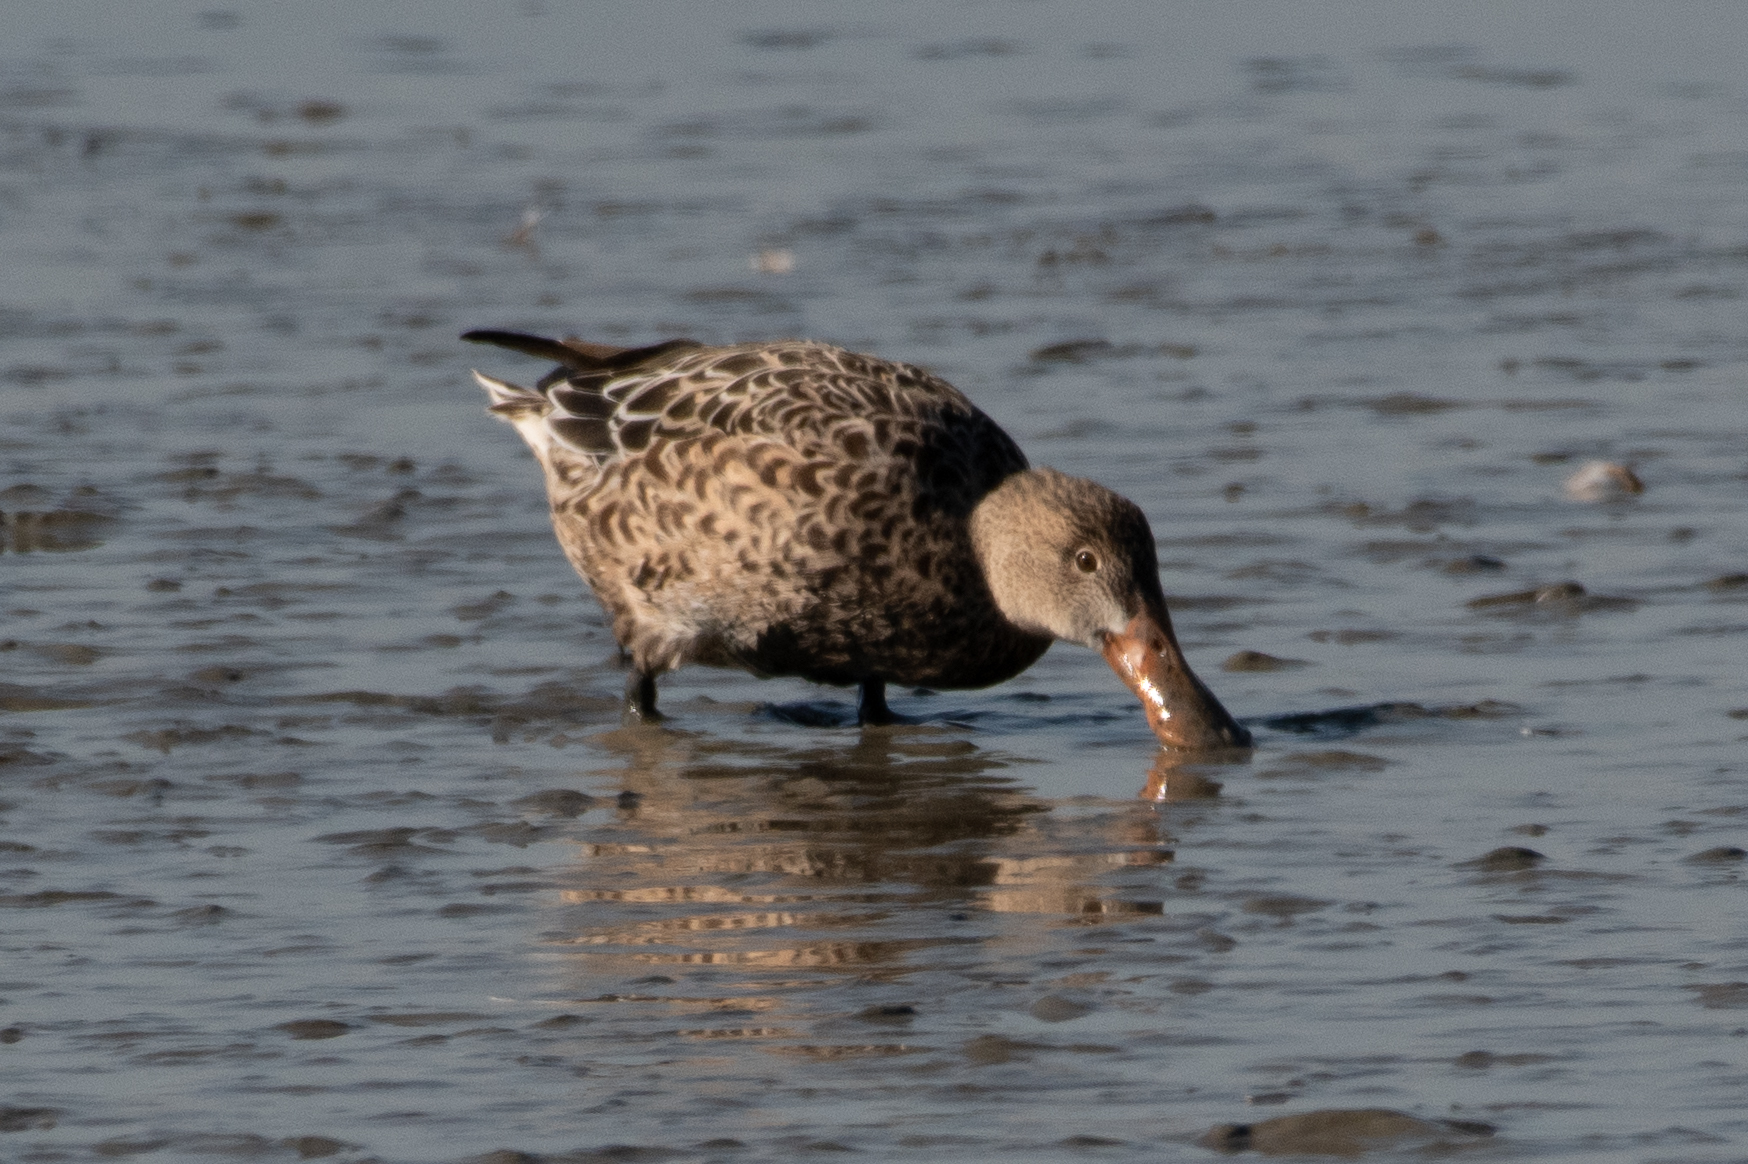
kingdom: Animalia
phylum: Chordata
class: Aves
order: Anseriformes
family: Anatidae
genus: Spatula
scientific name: Spatula clypeata
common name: Northern shoveler
